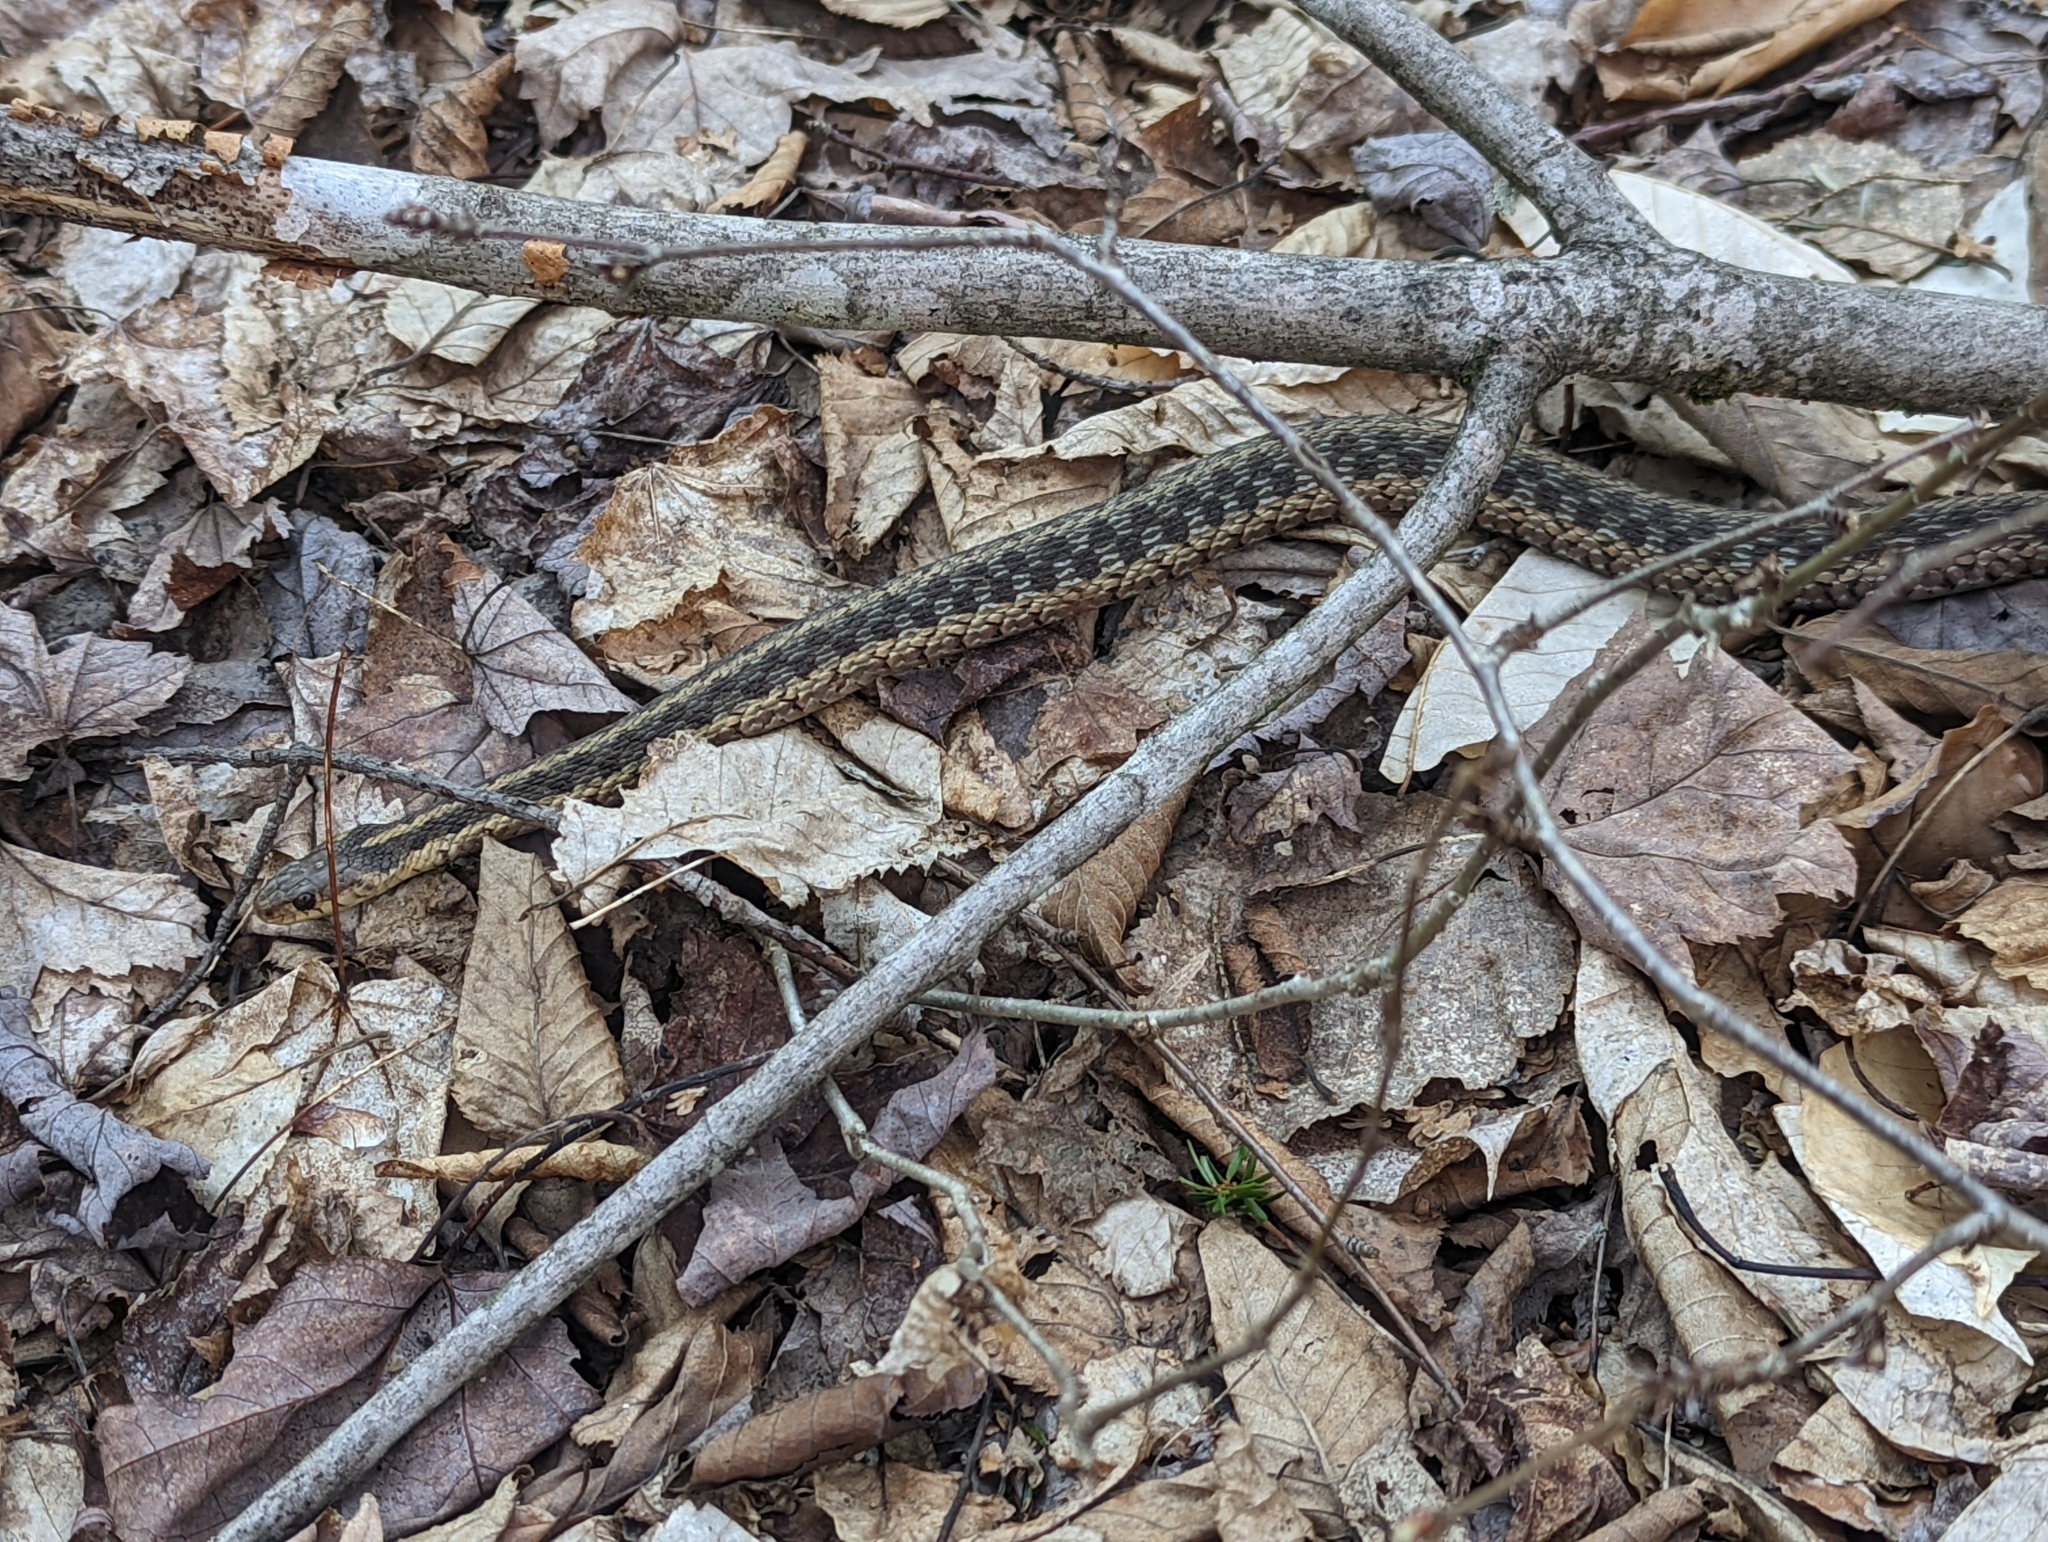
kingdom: Animalia
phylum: Chordata
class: Squamata
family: Colubridae
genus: Thamnophis
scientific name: Thamnophis sirtalis
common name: Common garter snake
